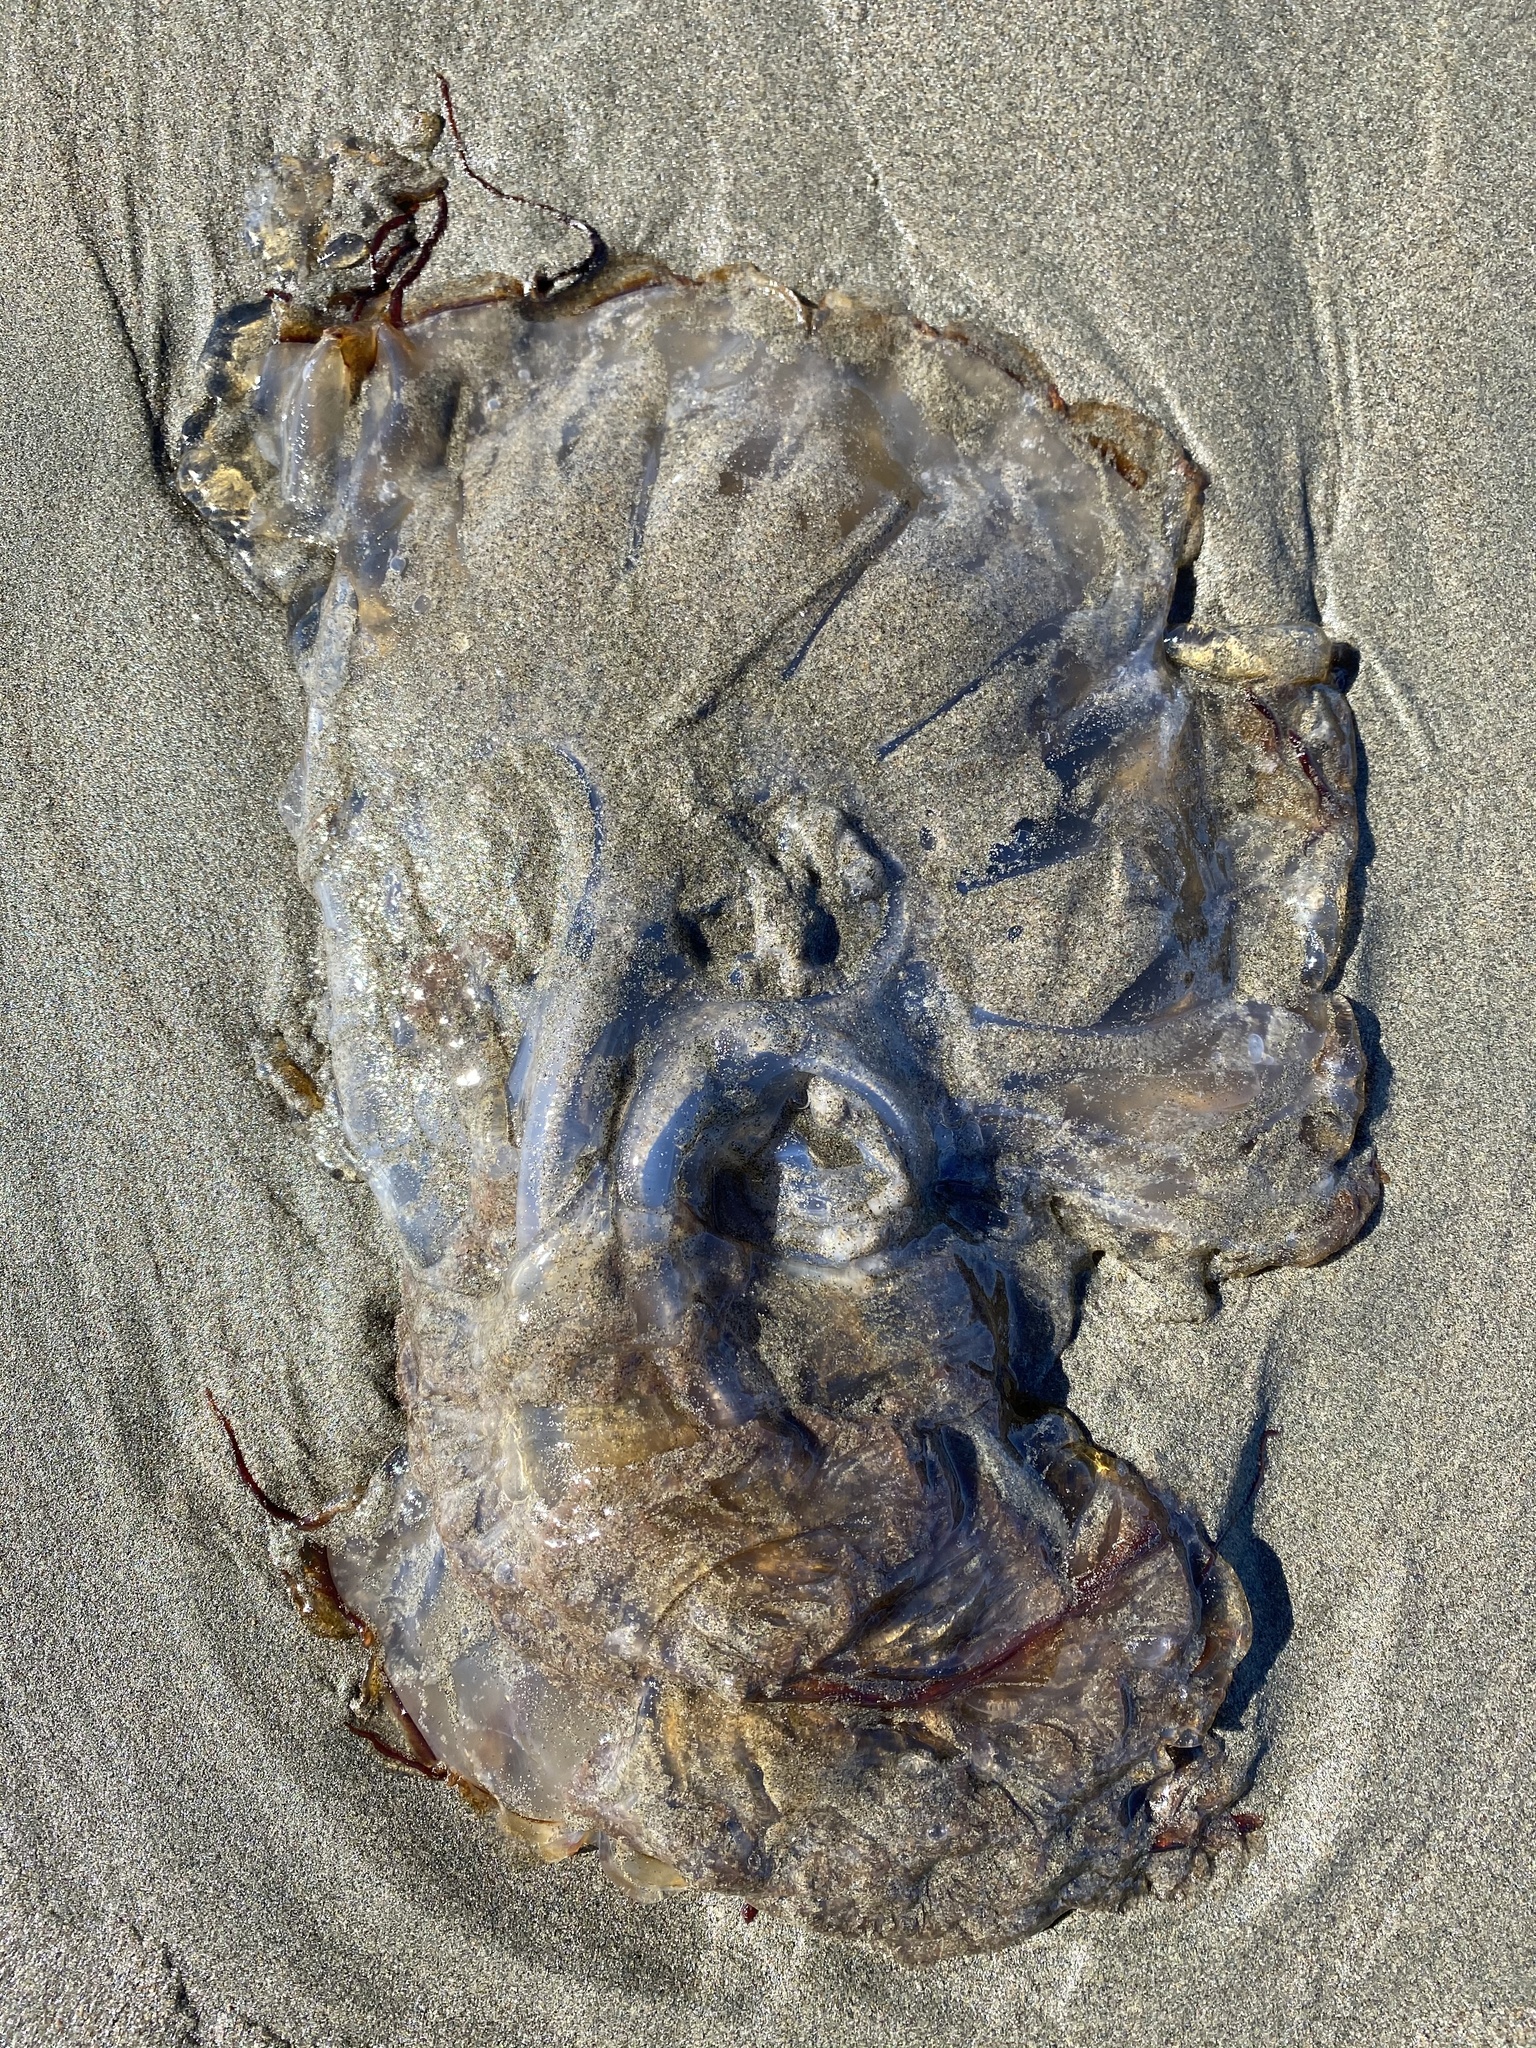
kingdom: Animalia
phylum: Cnidaria
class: Scyphozoa
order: Semaeostomeae
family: Pelagiidae
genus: Chrysaora
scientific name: Chrysaora fuscescens
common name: Sea nettle
